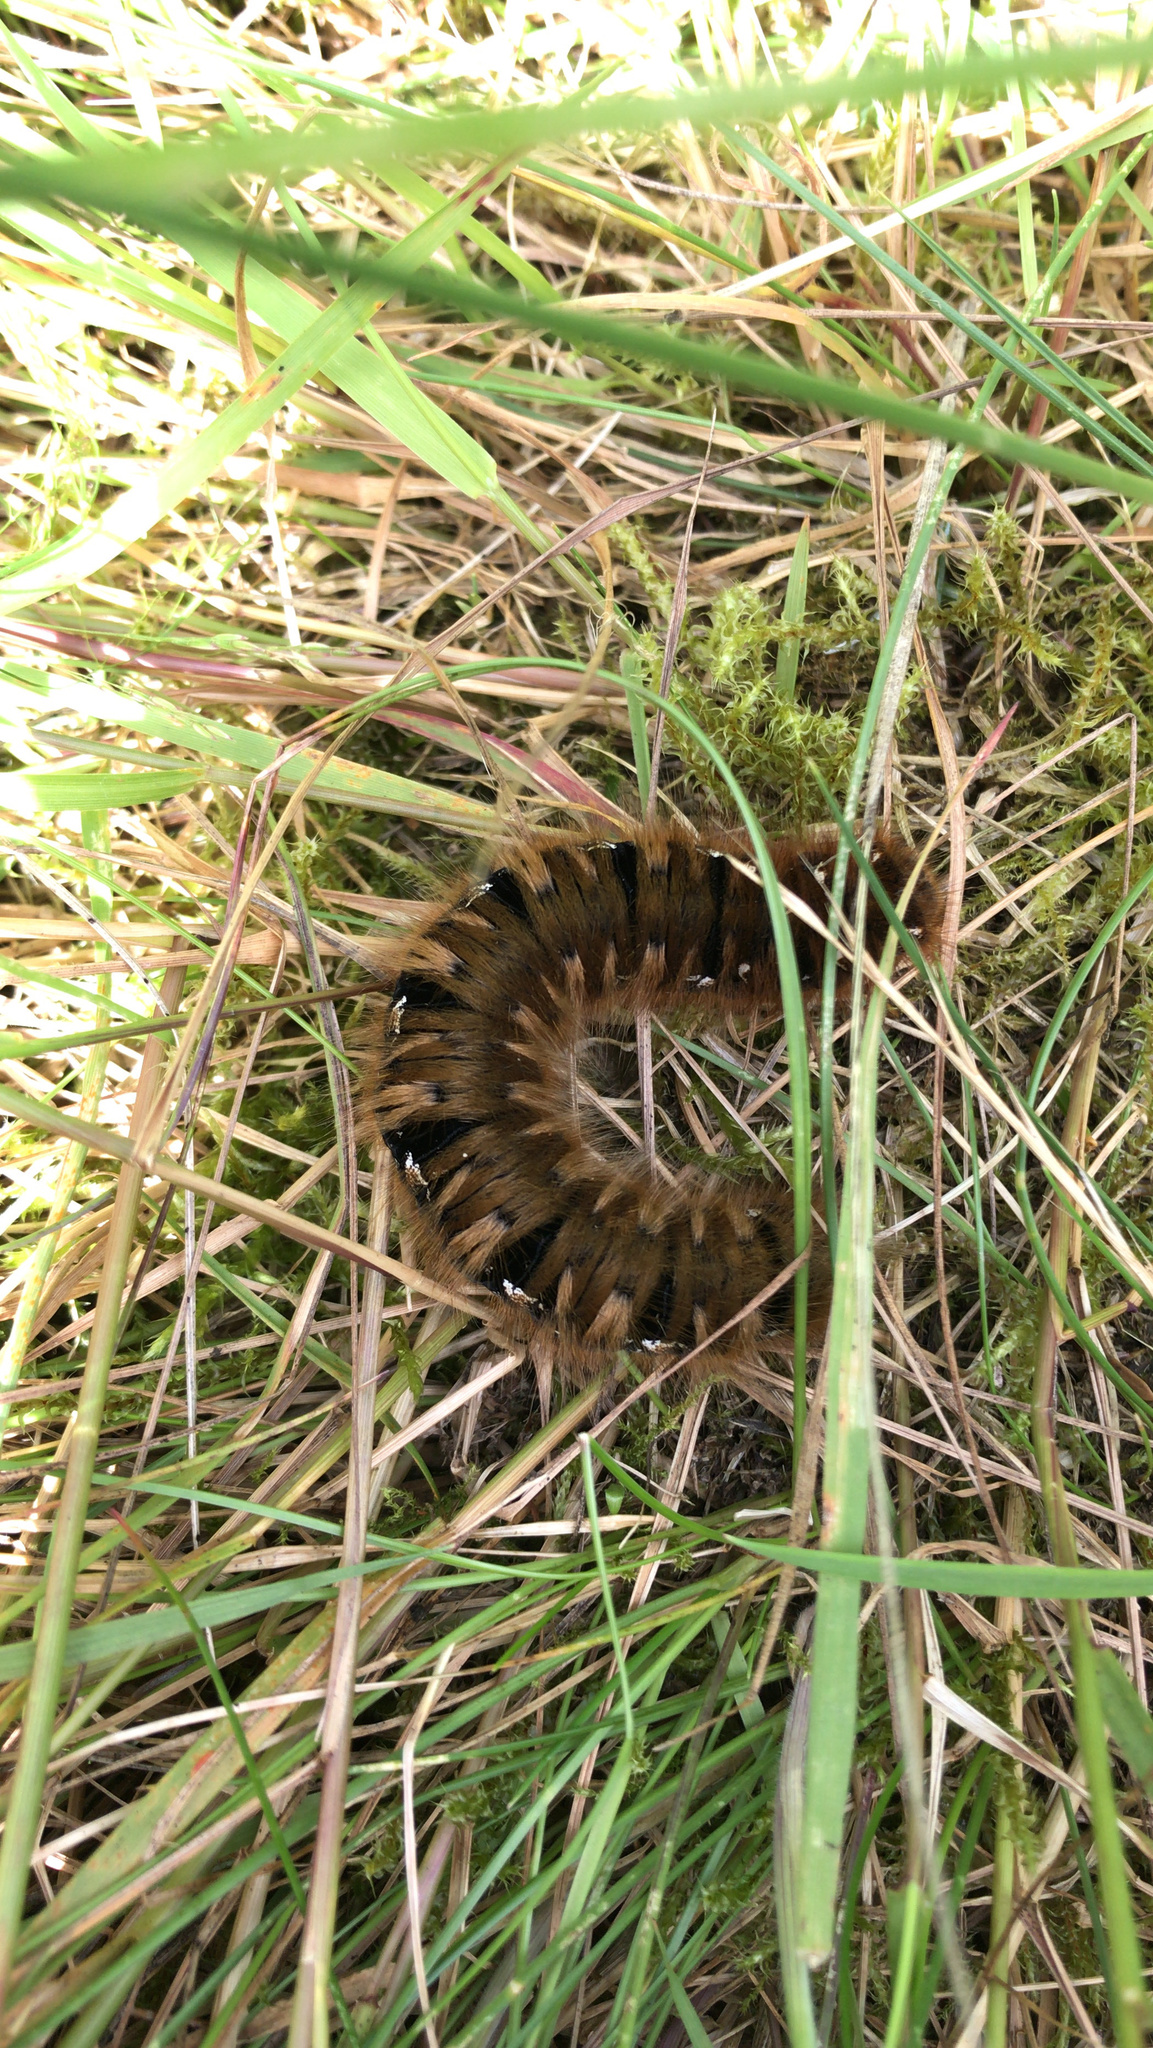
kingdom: Animalia
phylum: Arthropoda
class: Insecta
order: Lepidoptera
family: Lasiocampidae
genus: Lasiocampa
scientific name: Lasiocampa quercus
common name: Oak eggar
